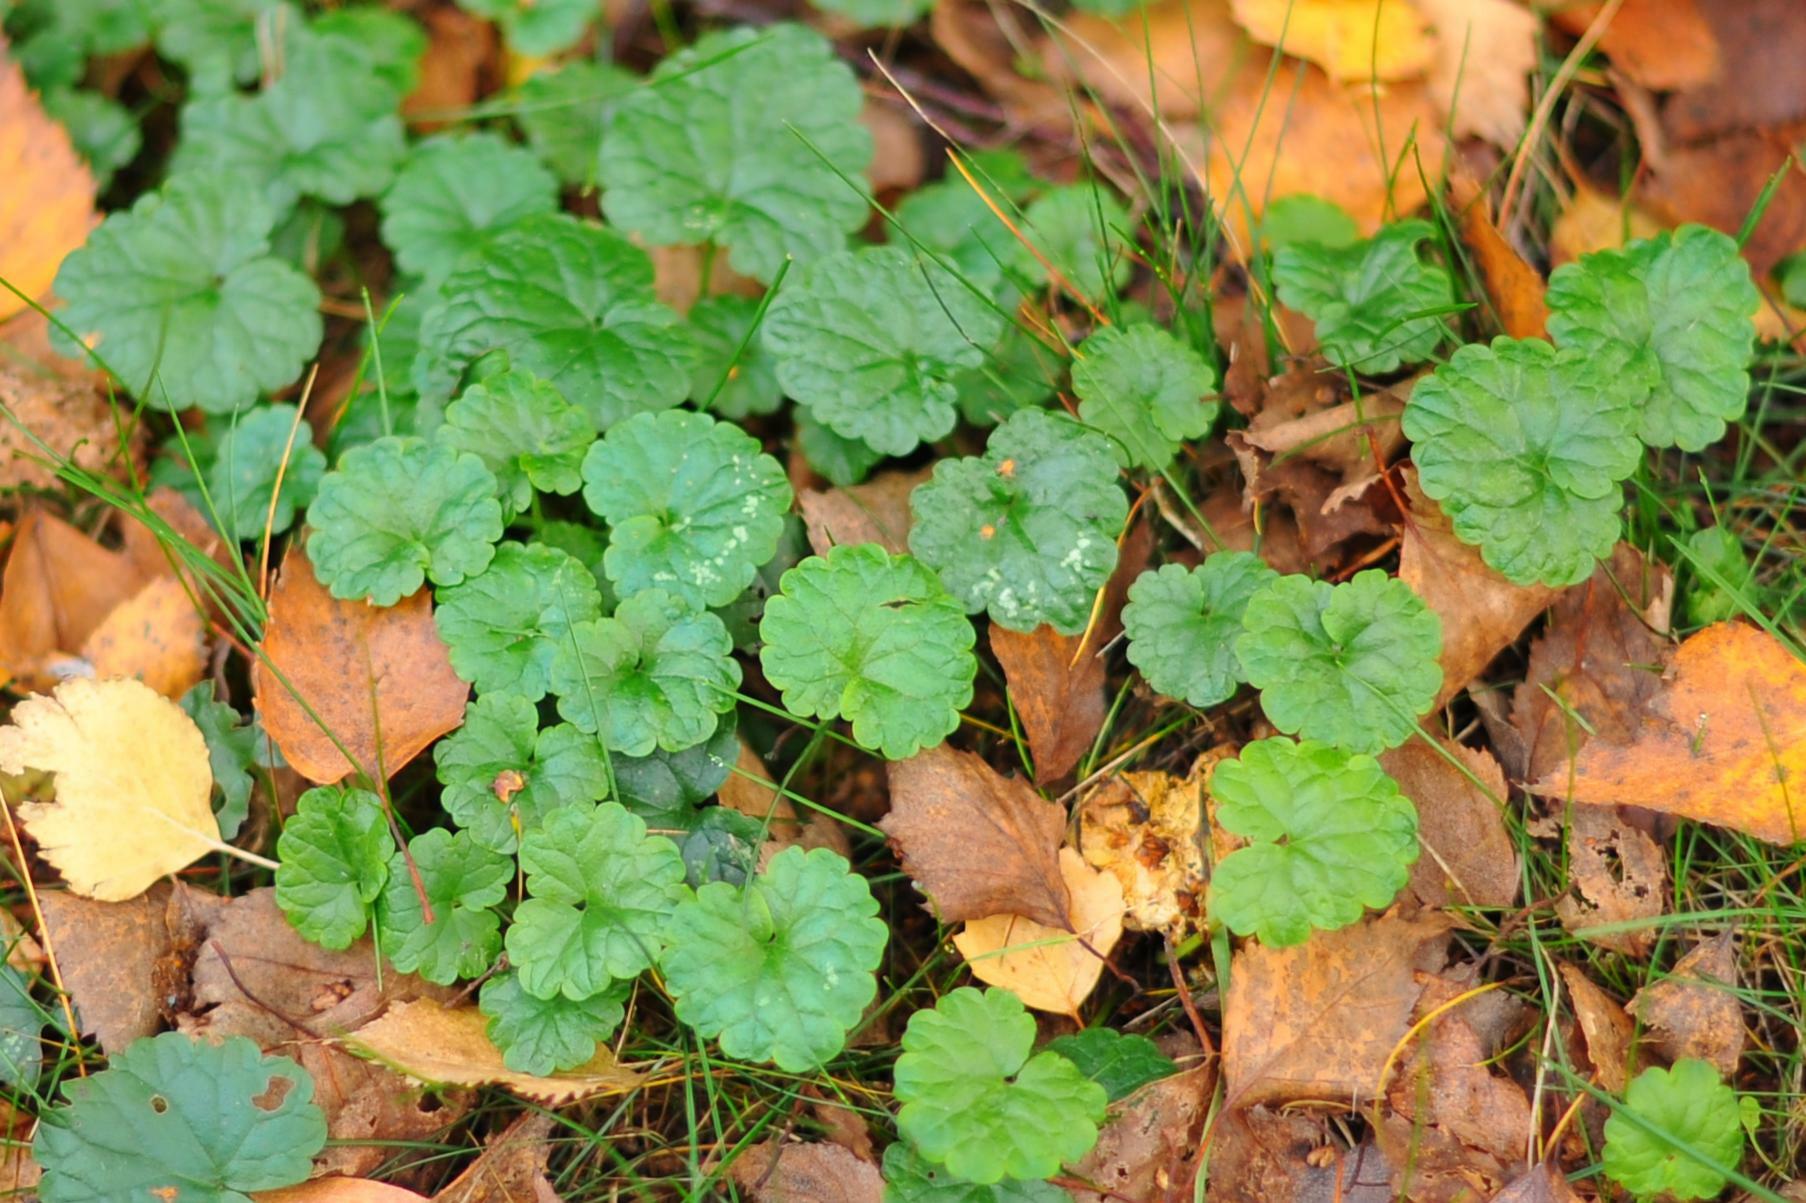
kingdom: Plantae
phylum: Tracheophyta
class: Magnoliopsida
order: Lamiales
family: Lamiaceae
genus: Glechoma
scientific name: Glechoma hederacea
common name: Ground ivy
